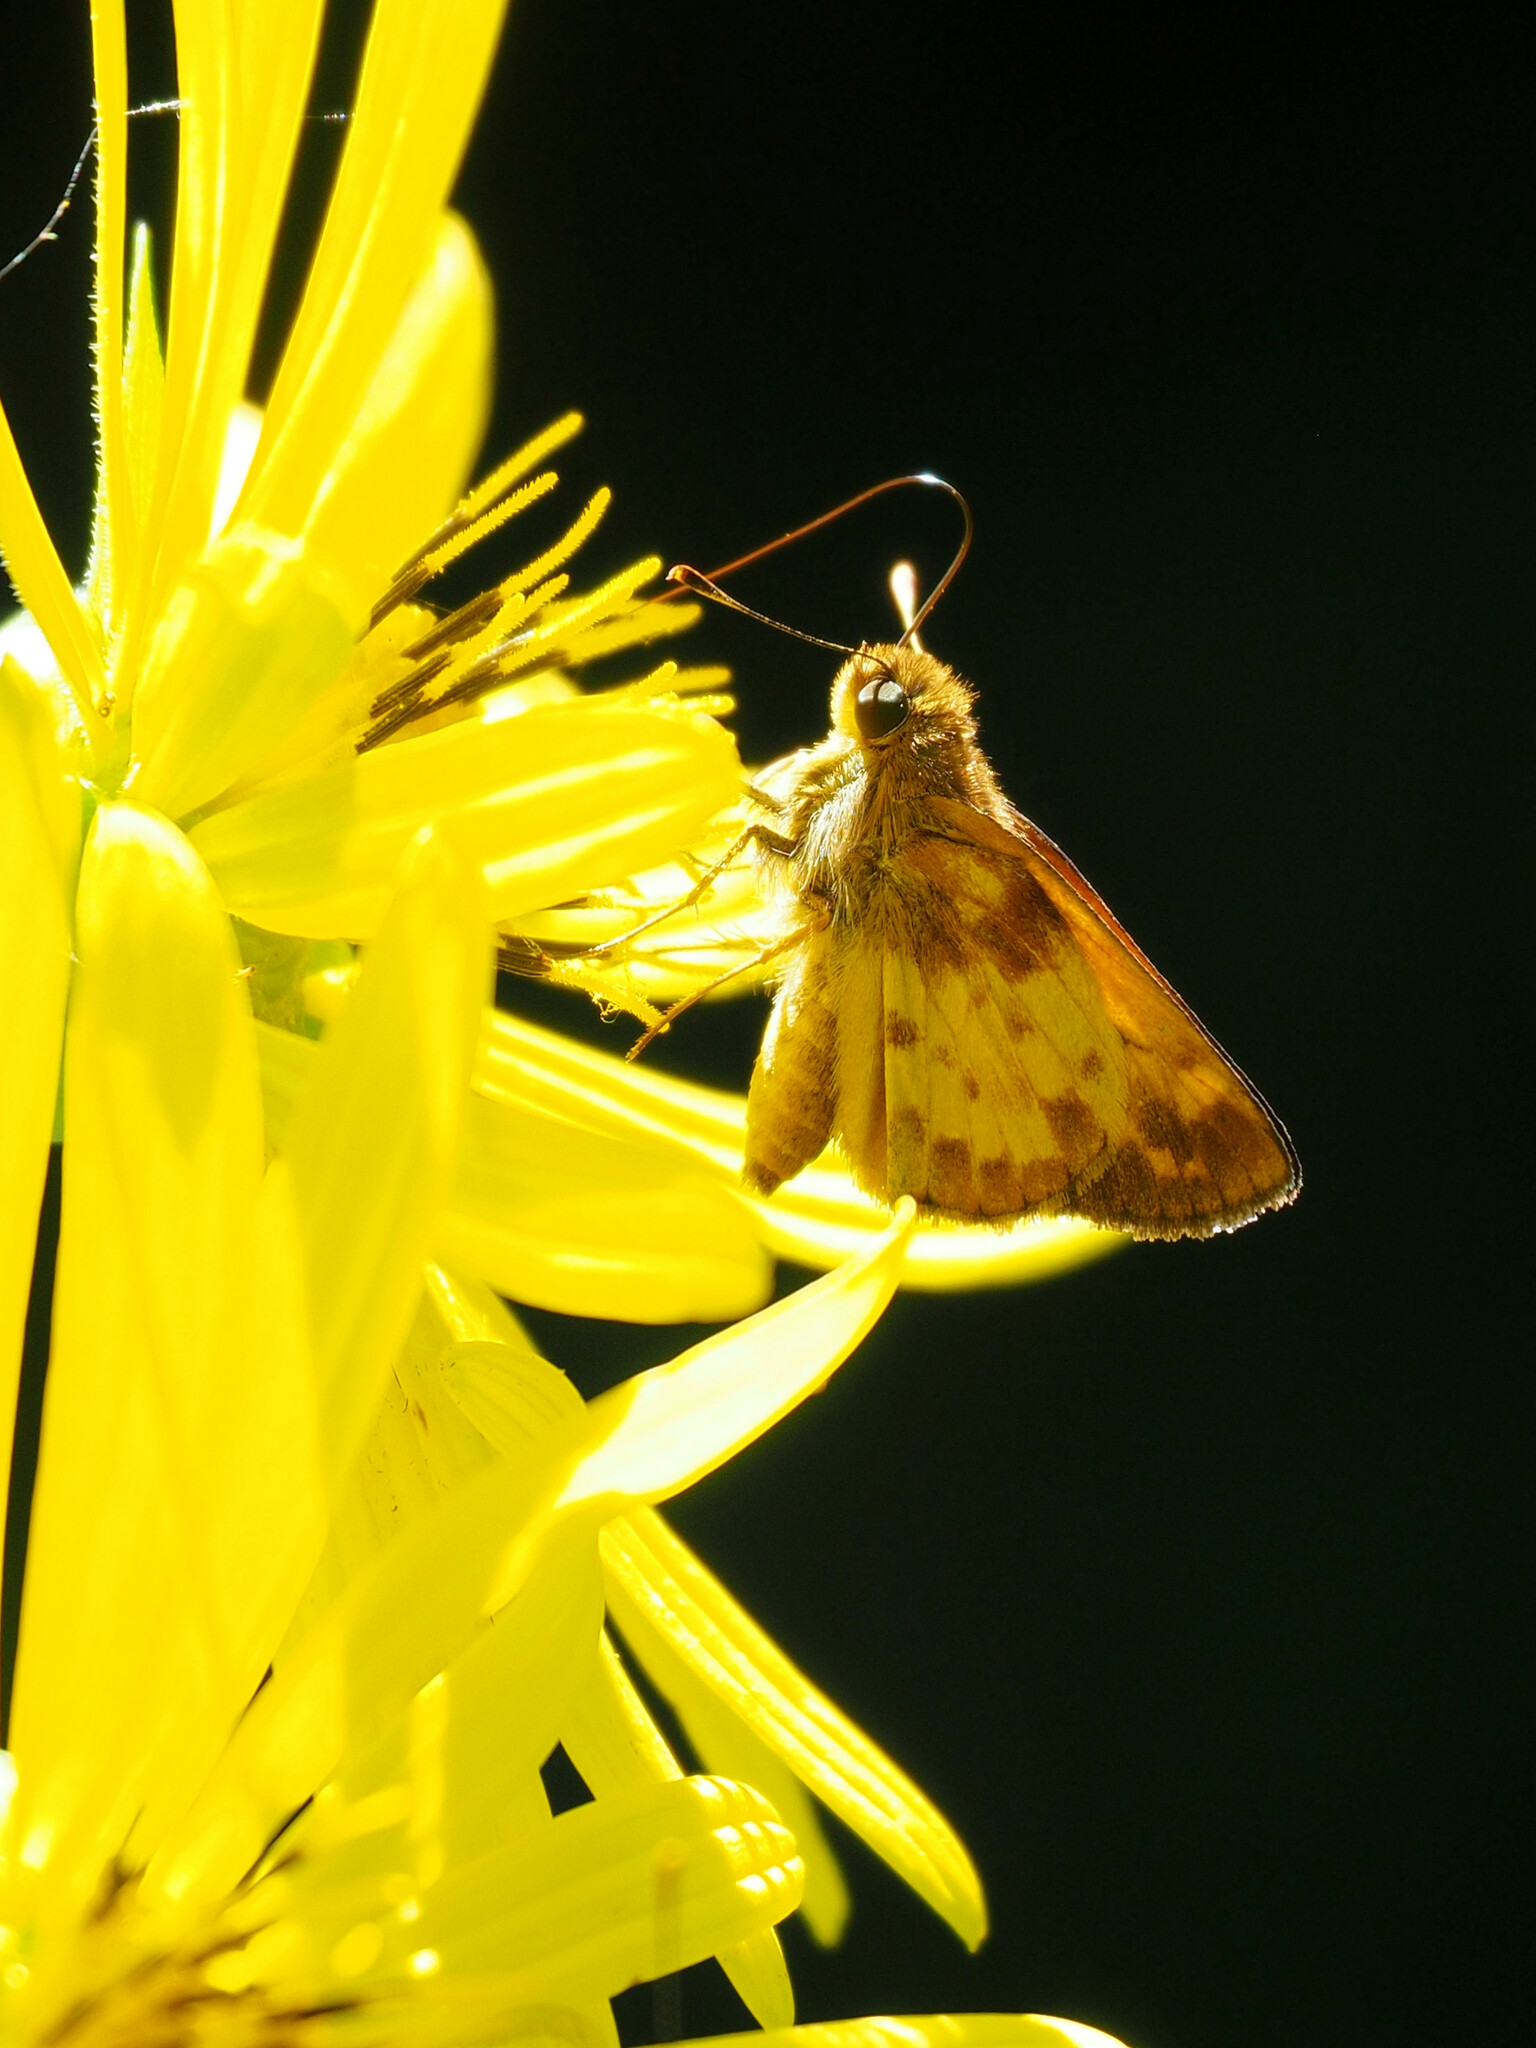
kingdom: Animalia
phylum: Arthropoda
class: Insecta
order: Lepidoptera
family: Hesperiidae
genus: Lon
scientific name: Lon zabulon
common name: Zabulon skipper
